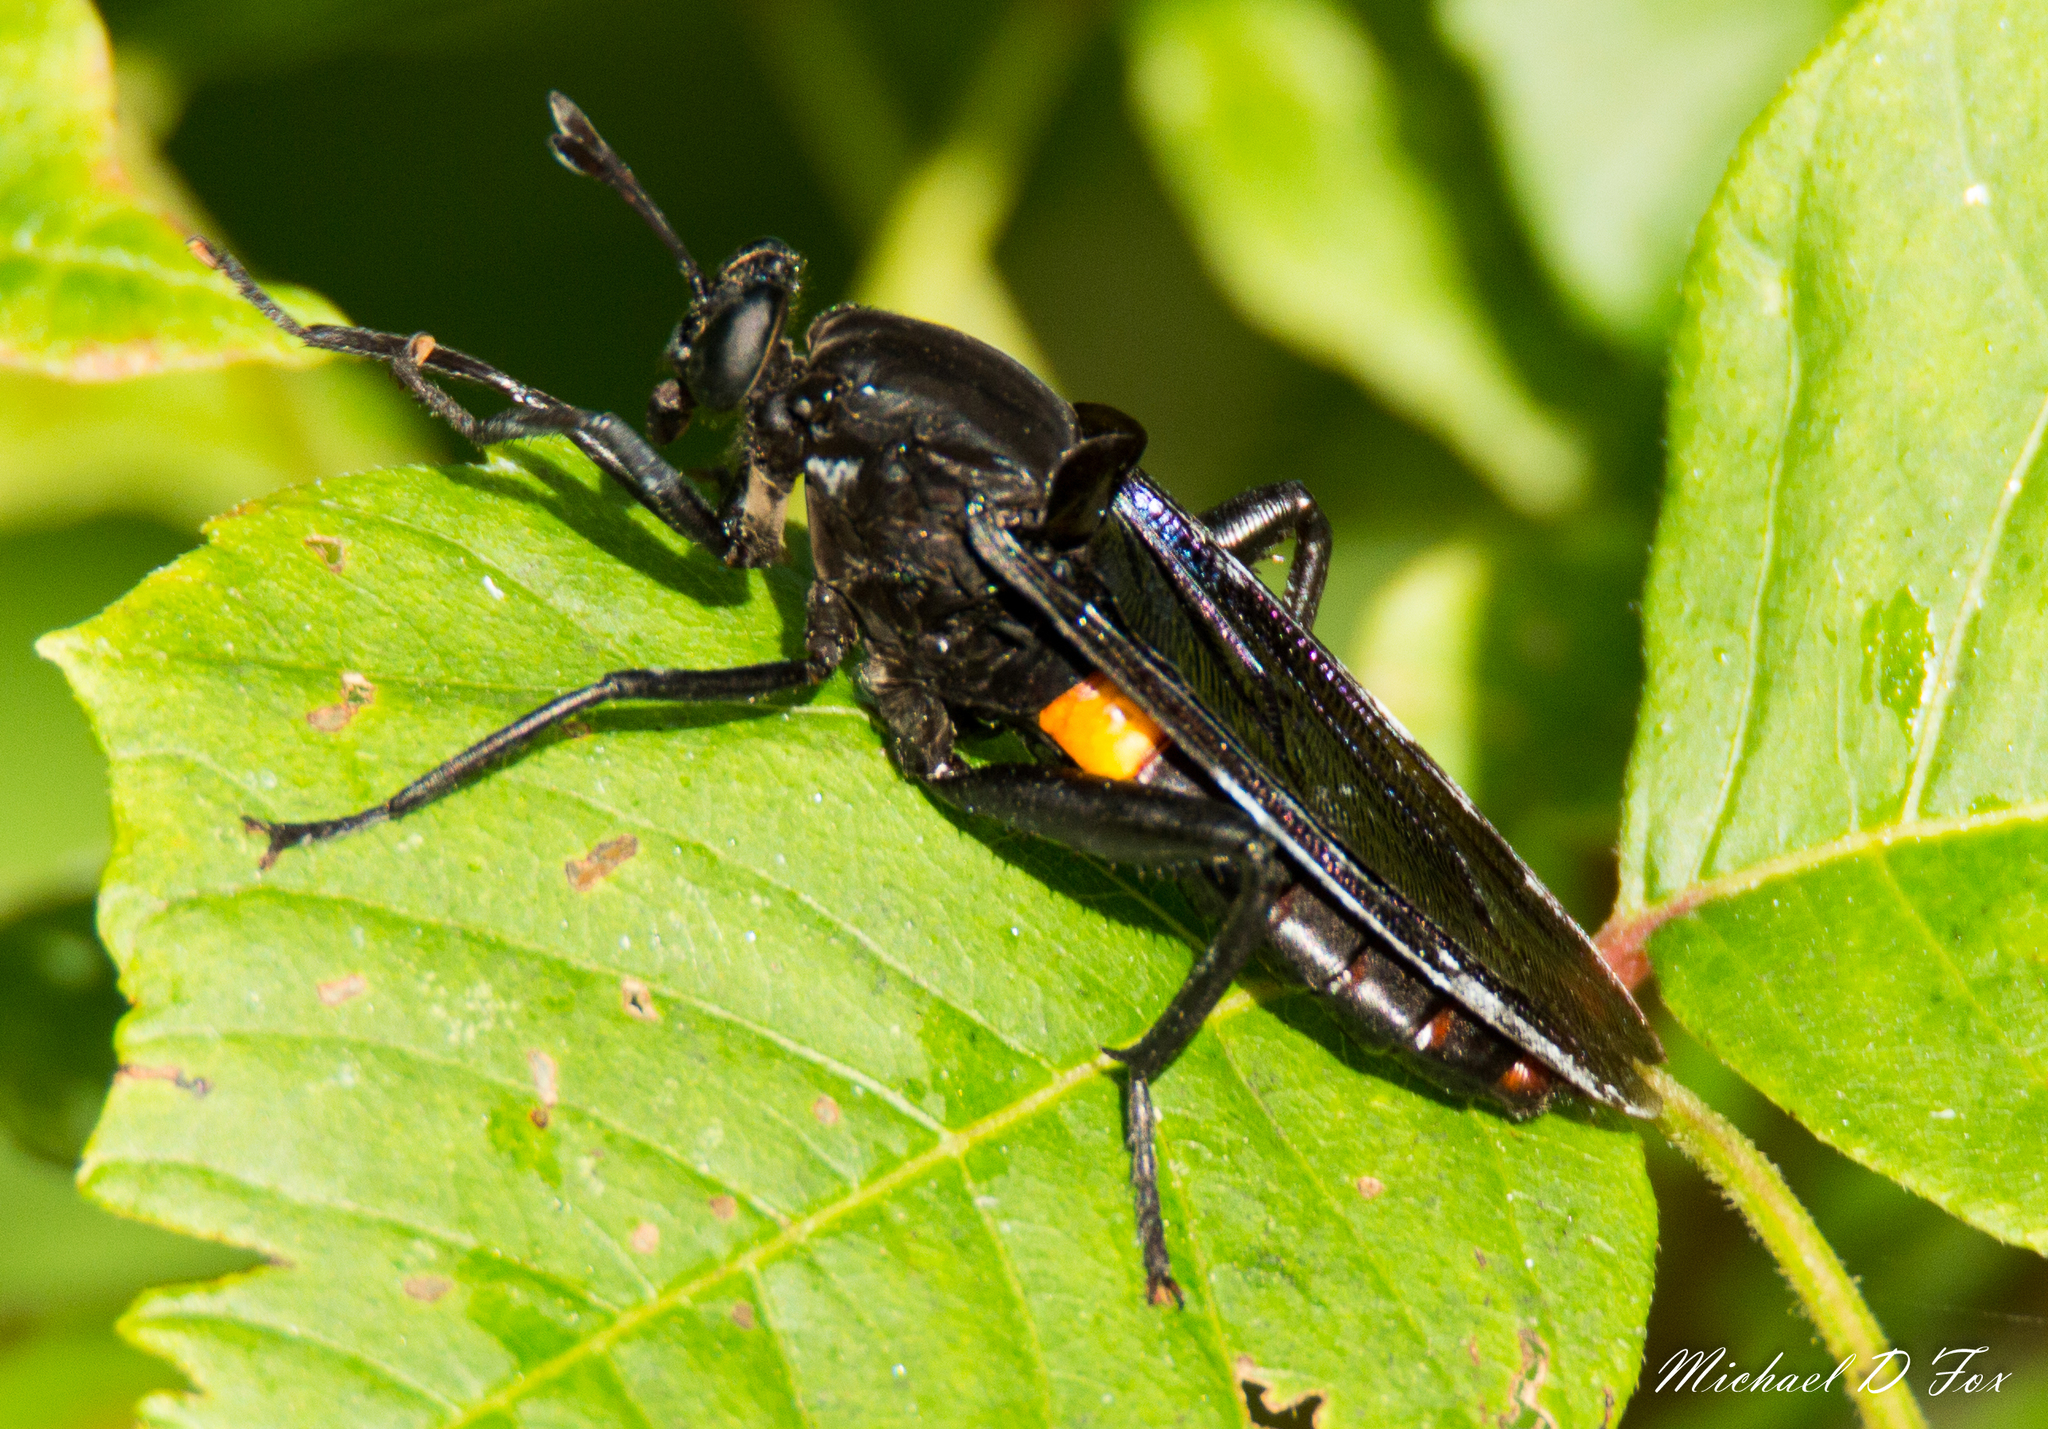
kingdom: Animalia
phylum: Arthropoda
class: Insecta
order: Diptera
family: Mydidae
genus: Mydas
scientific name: Mydas clavatus
